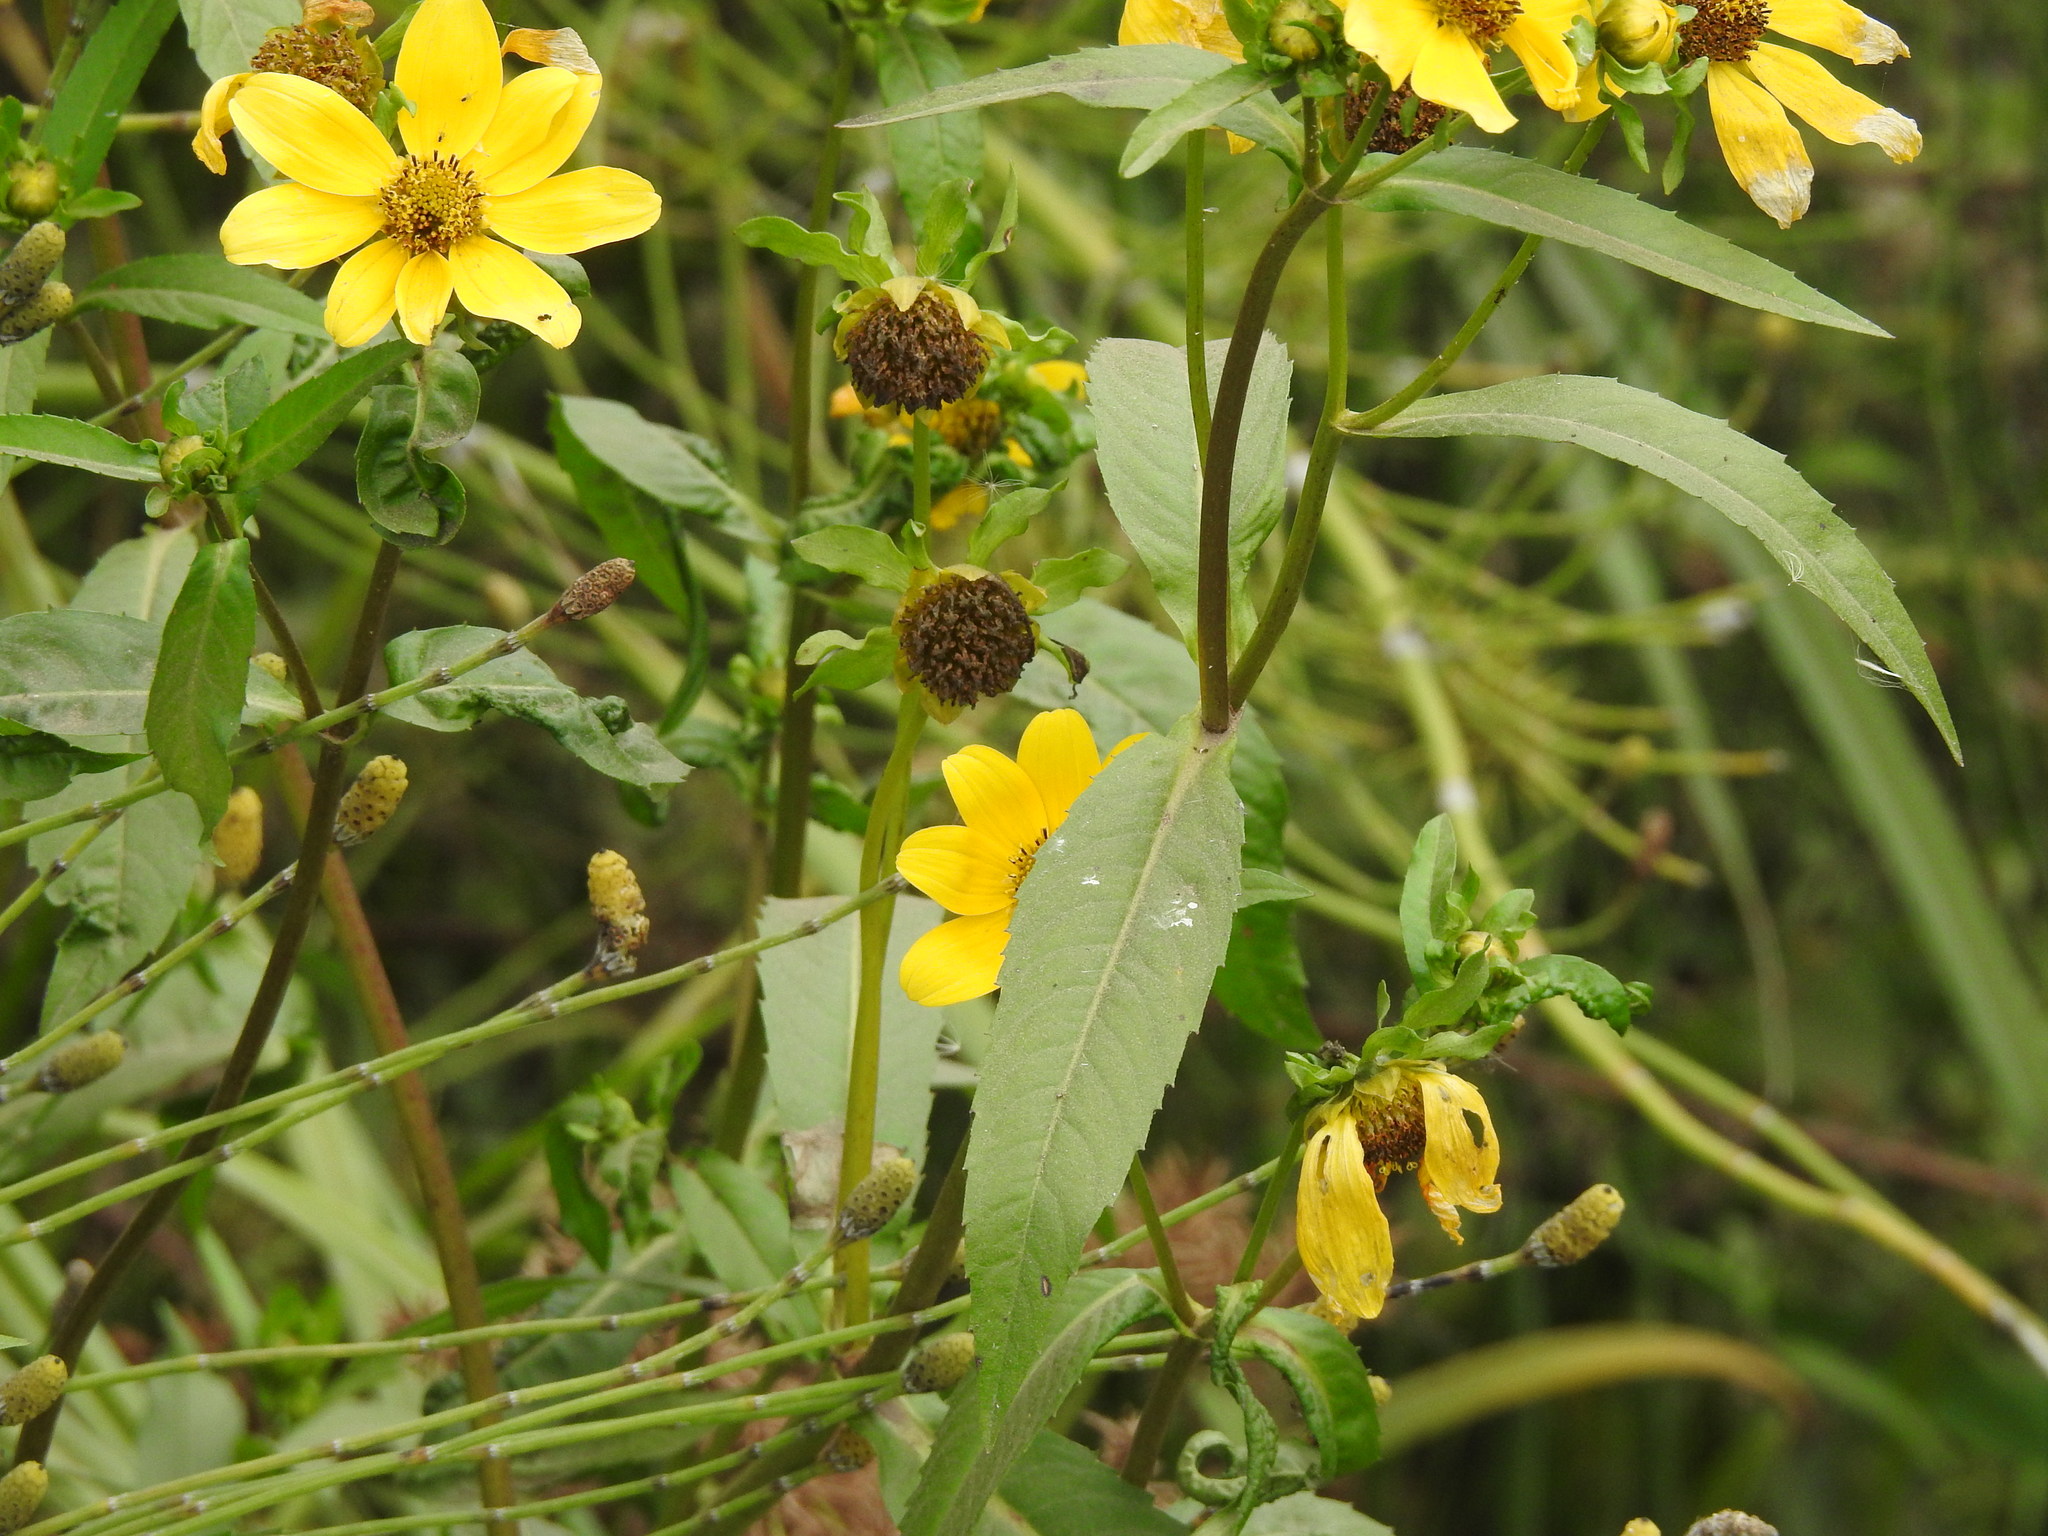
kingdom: Plantae
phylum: Tracheophyta
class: Magnoliopsida
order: Asterales
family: Asteraceae
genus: Bidens
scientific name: Bidens laevis
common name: Larger bur-marigold
